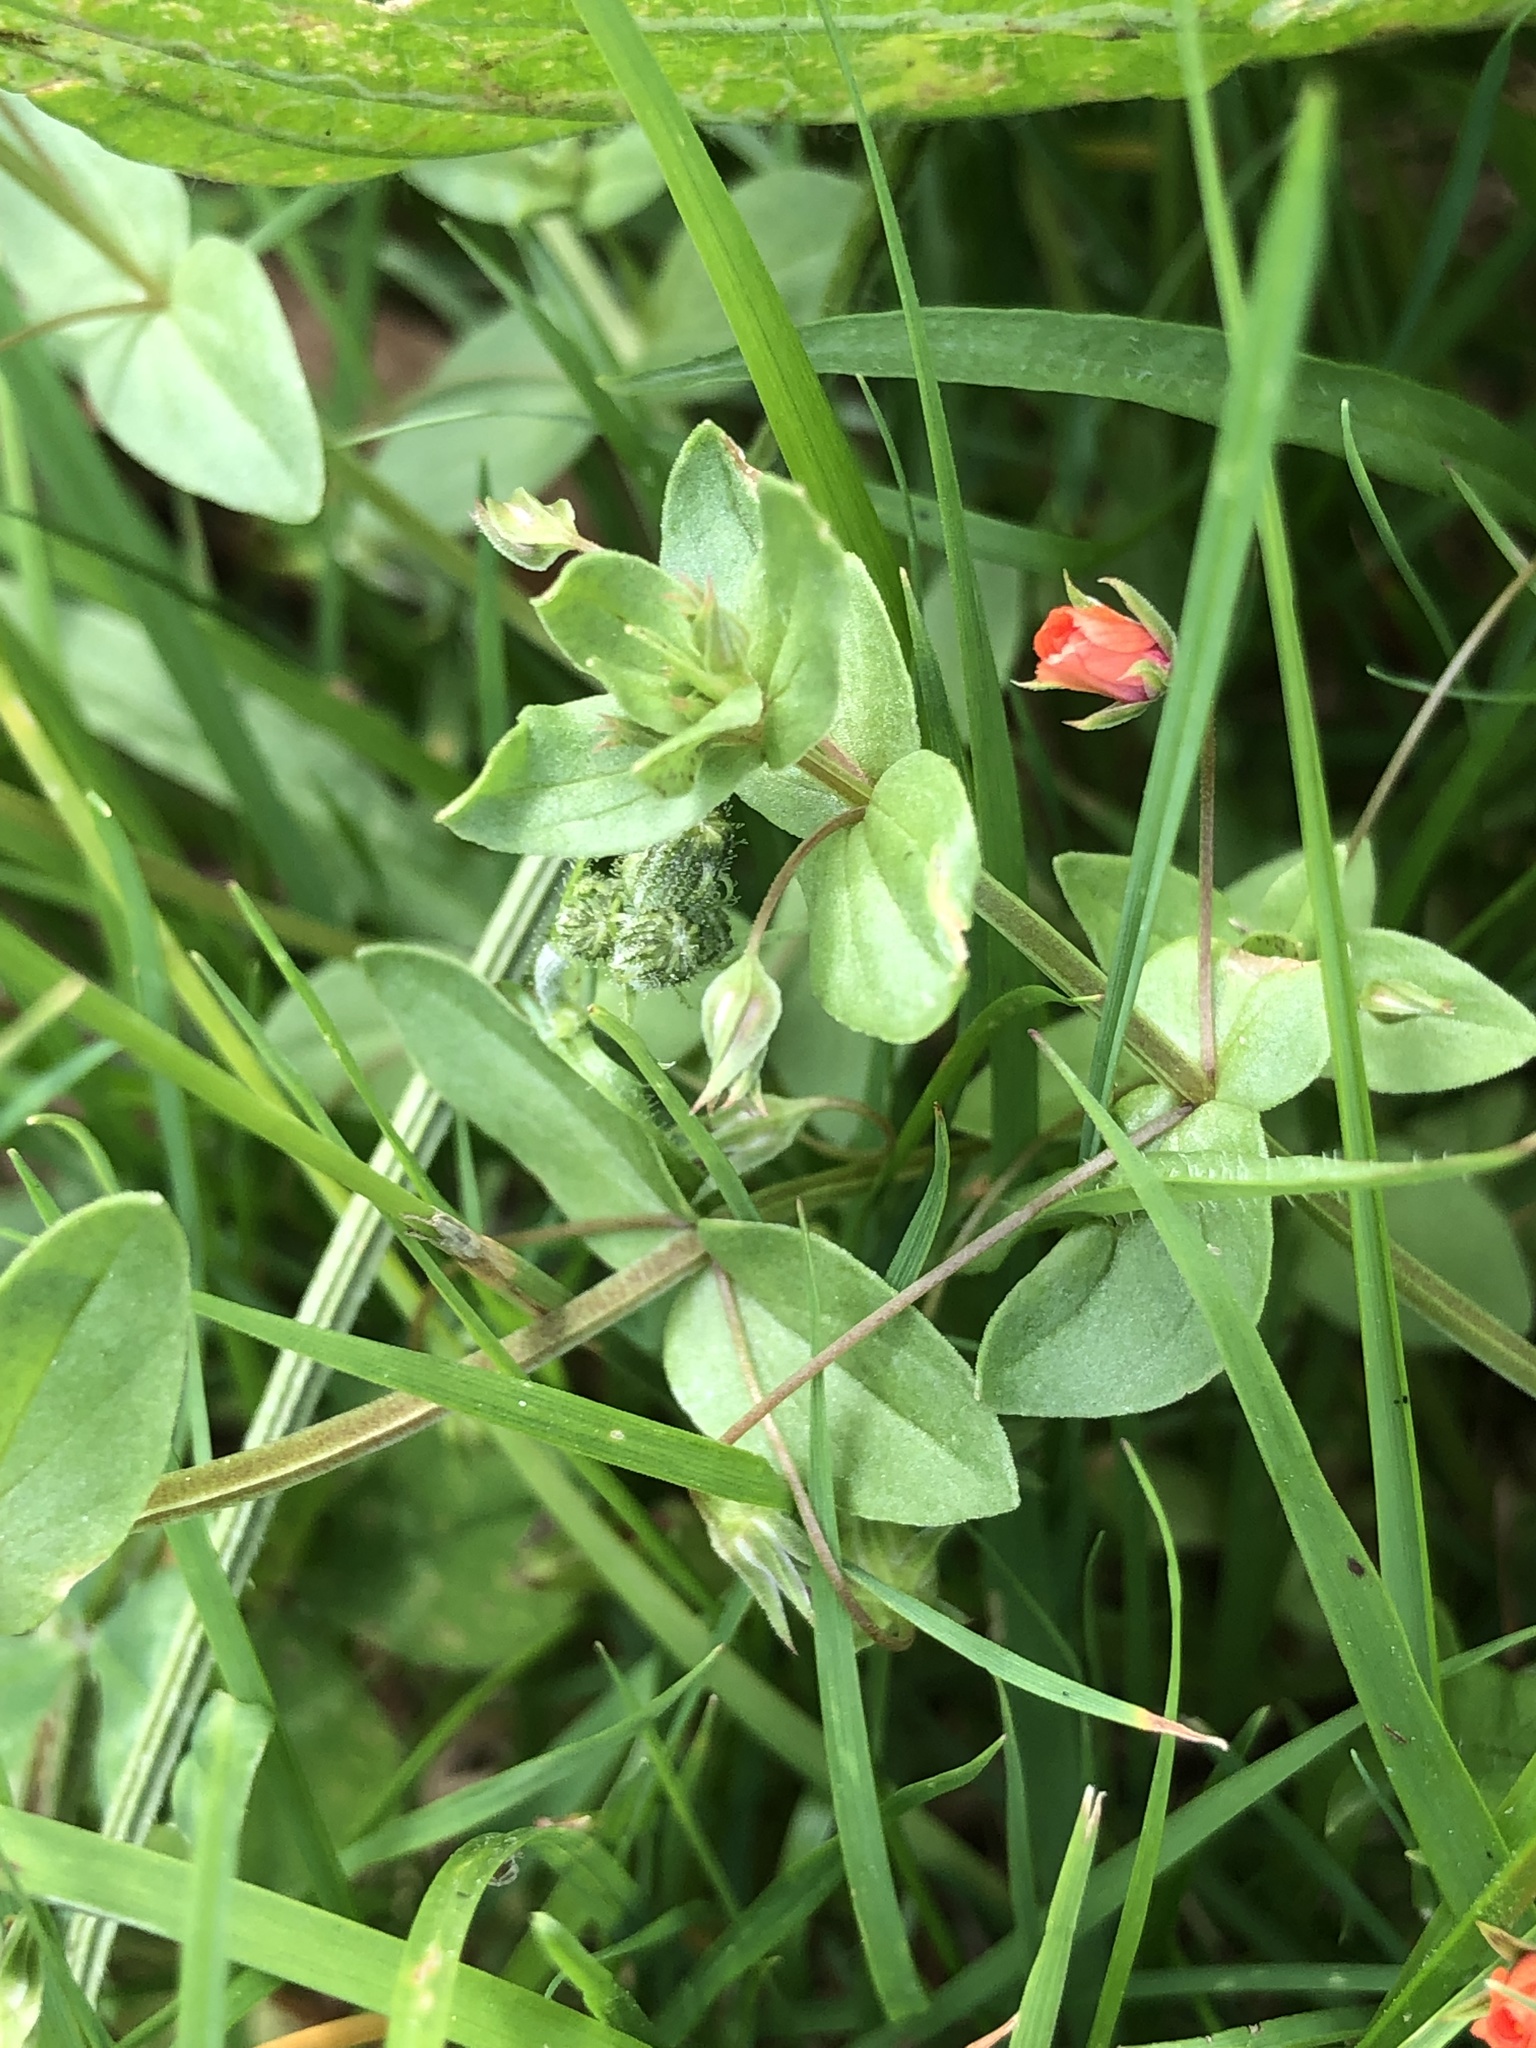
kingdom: Plantae
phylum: Tracheophyta
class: Magnoliopsida
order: Ericales
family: Primulaceae
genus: Lysimachia
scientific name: Lysimachia arvensis
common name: Scarlet pimpernel
